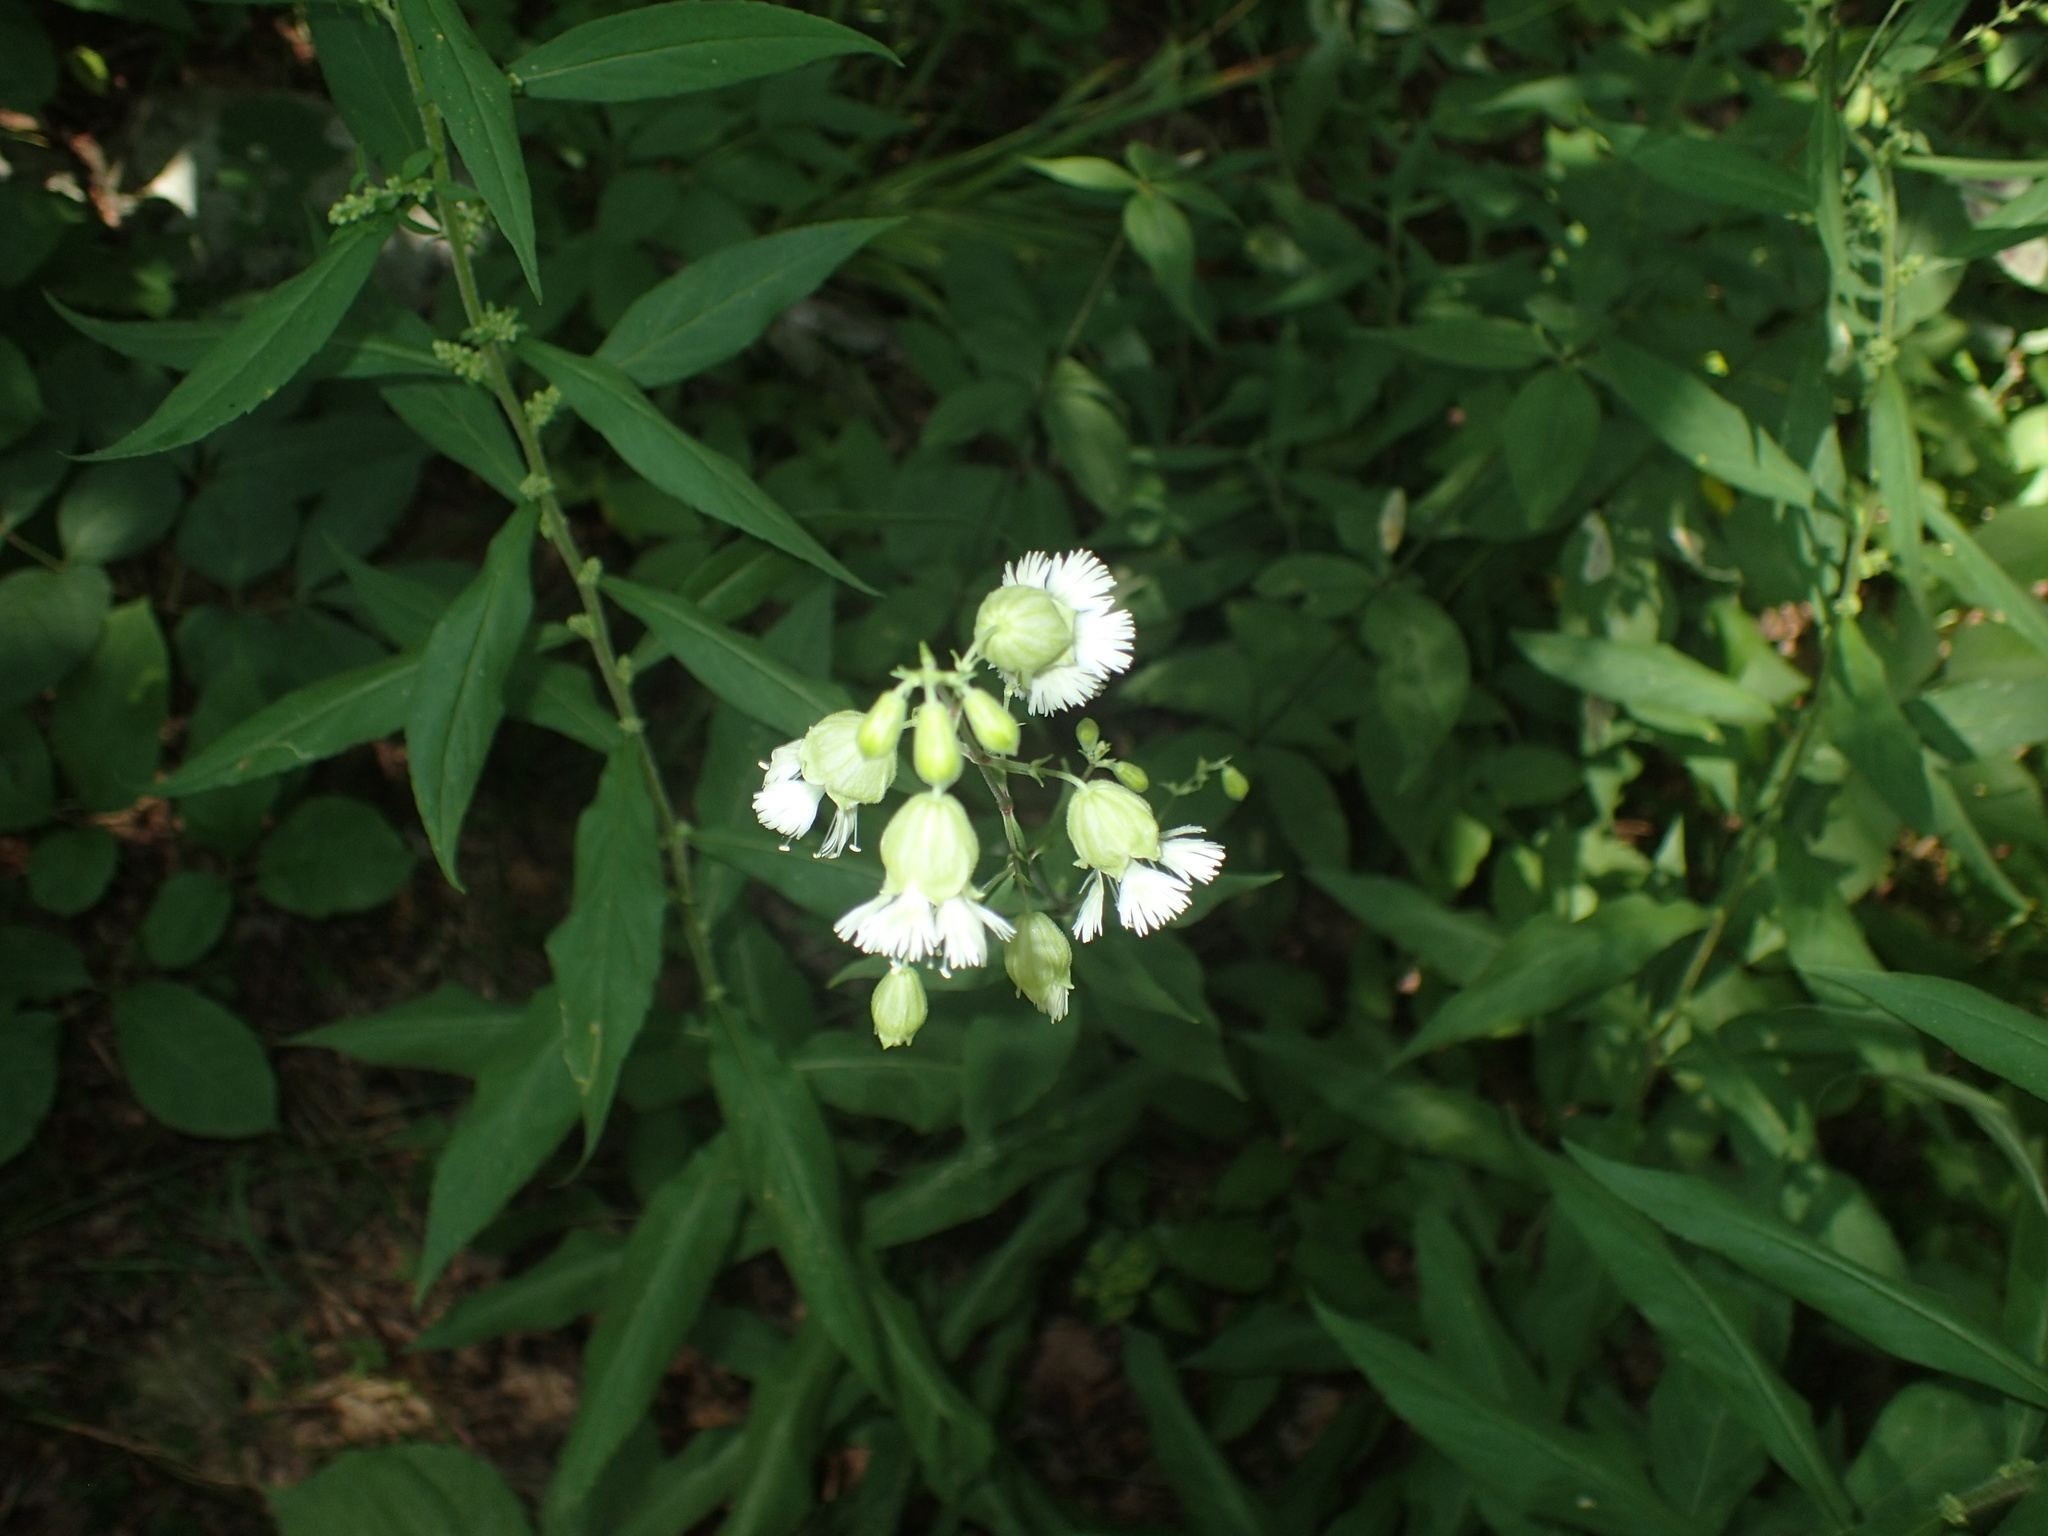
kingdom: Plantae
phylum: Tracheophyta
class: Magnoliopsida
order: Caryophyllales
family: Caryophyllaceae
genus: Silene
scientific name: Silene stellata
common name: Starry campion
